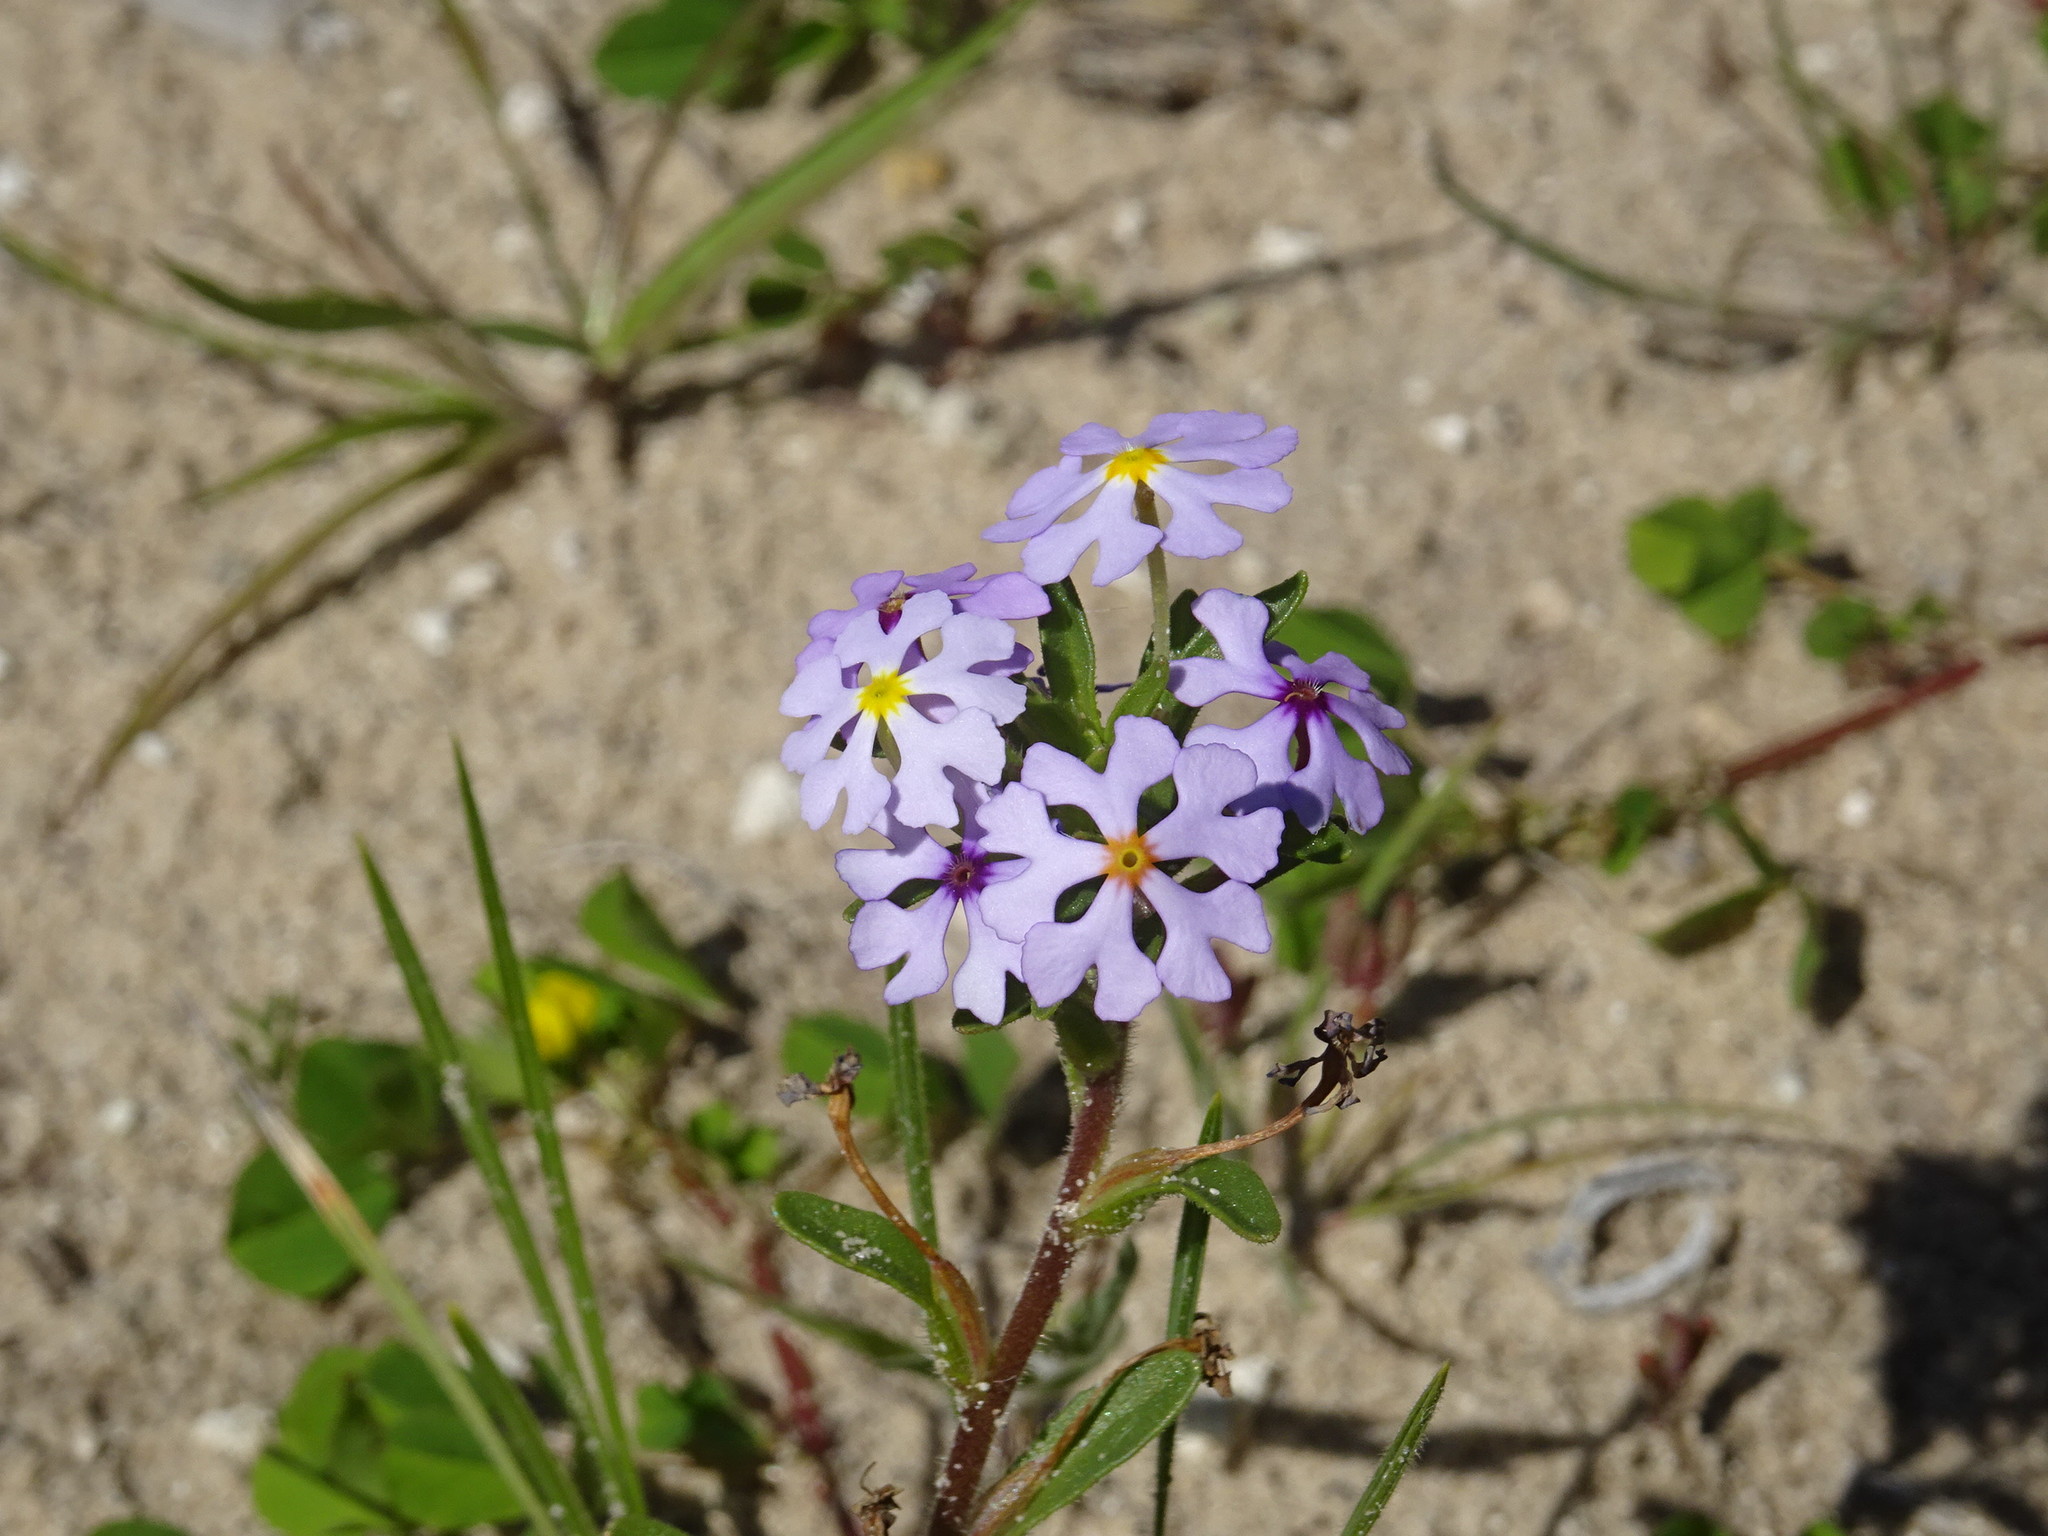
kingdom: Plantae
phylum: Tracheophyta
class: Magnoliopsida
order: Lamiales
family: Scrophulariaceae
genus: Zaluzianskya
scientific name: Zaluzianskya villosa
